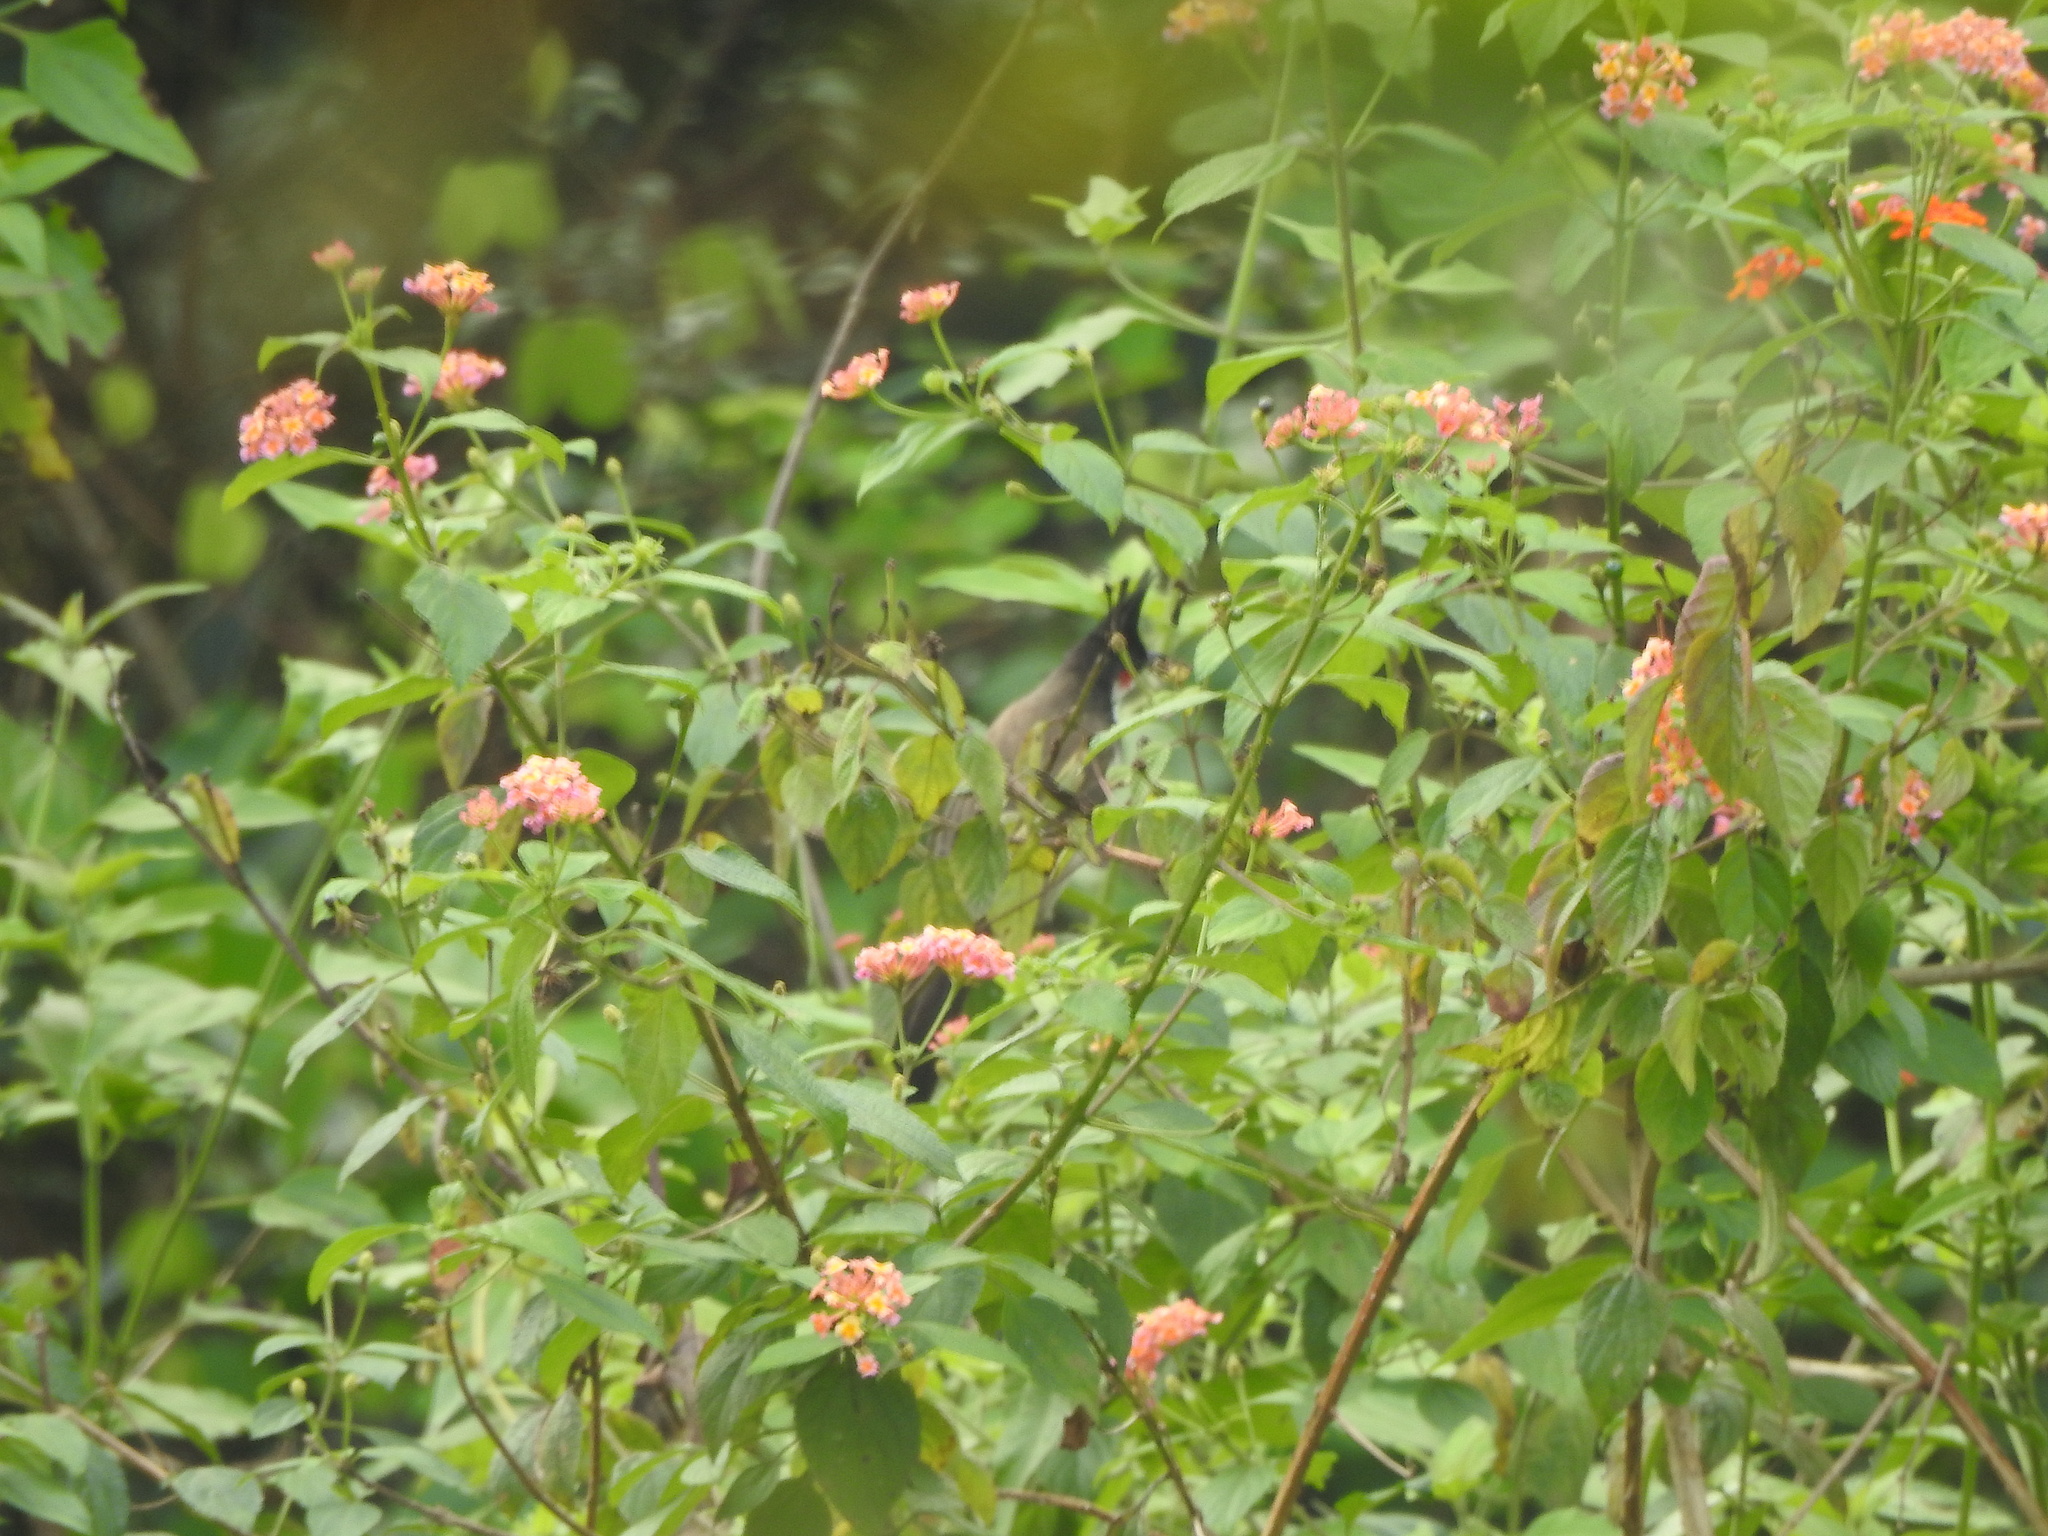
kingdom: Animalia
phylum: Chordata
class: Aves
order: Passeriformes
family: Pycnonotidae
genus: Pycnonotus
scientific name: Pycnonotus jocosus
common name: Red-whiskered bulbul
